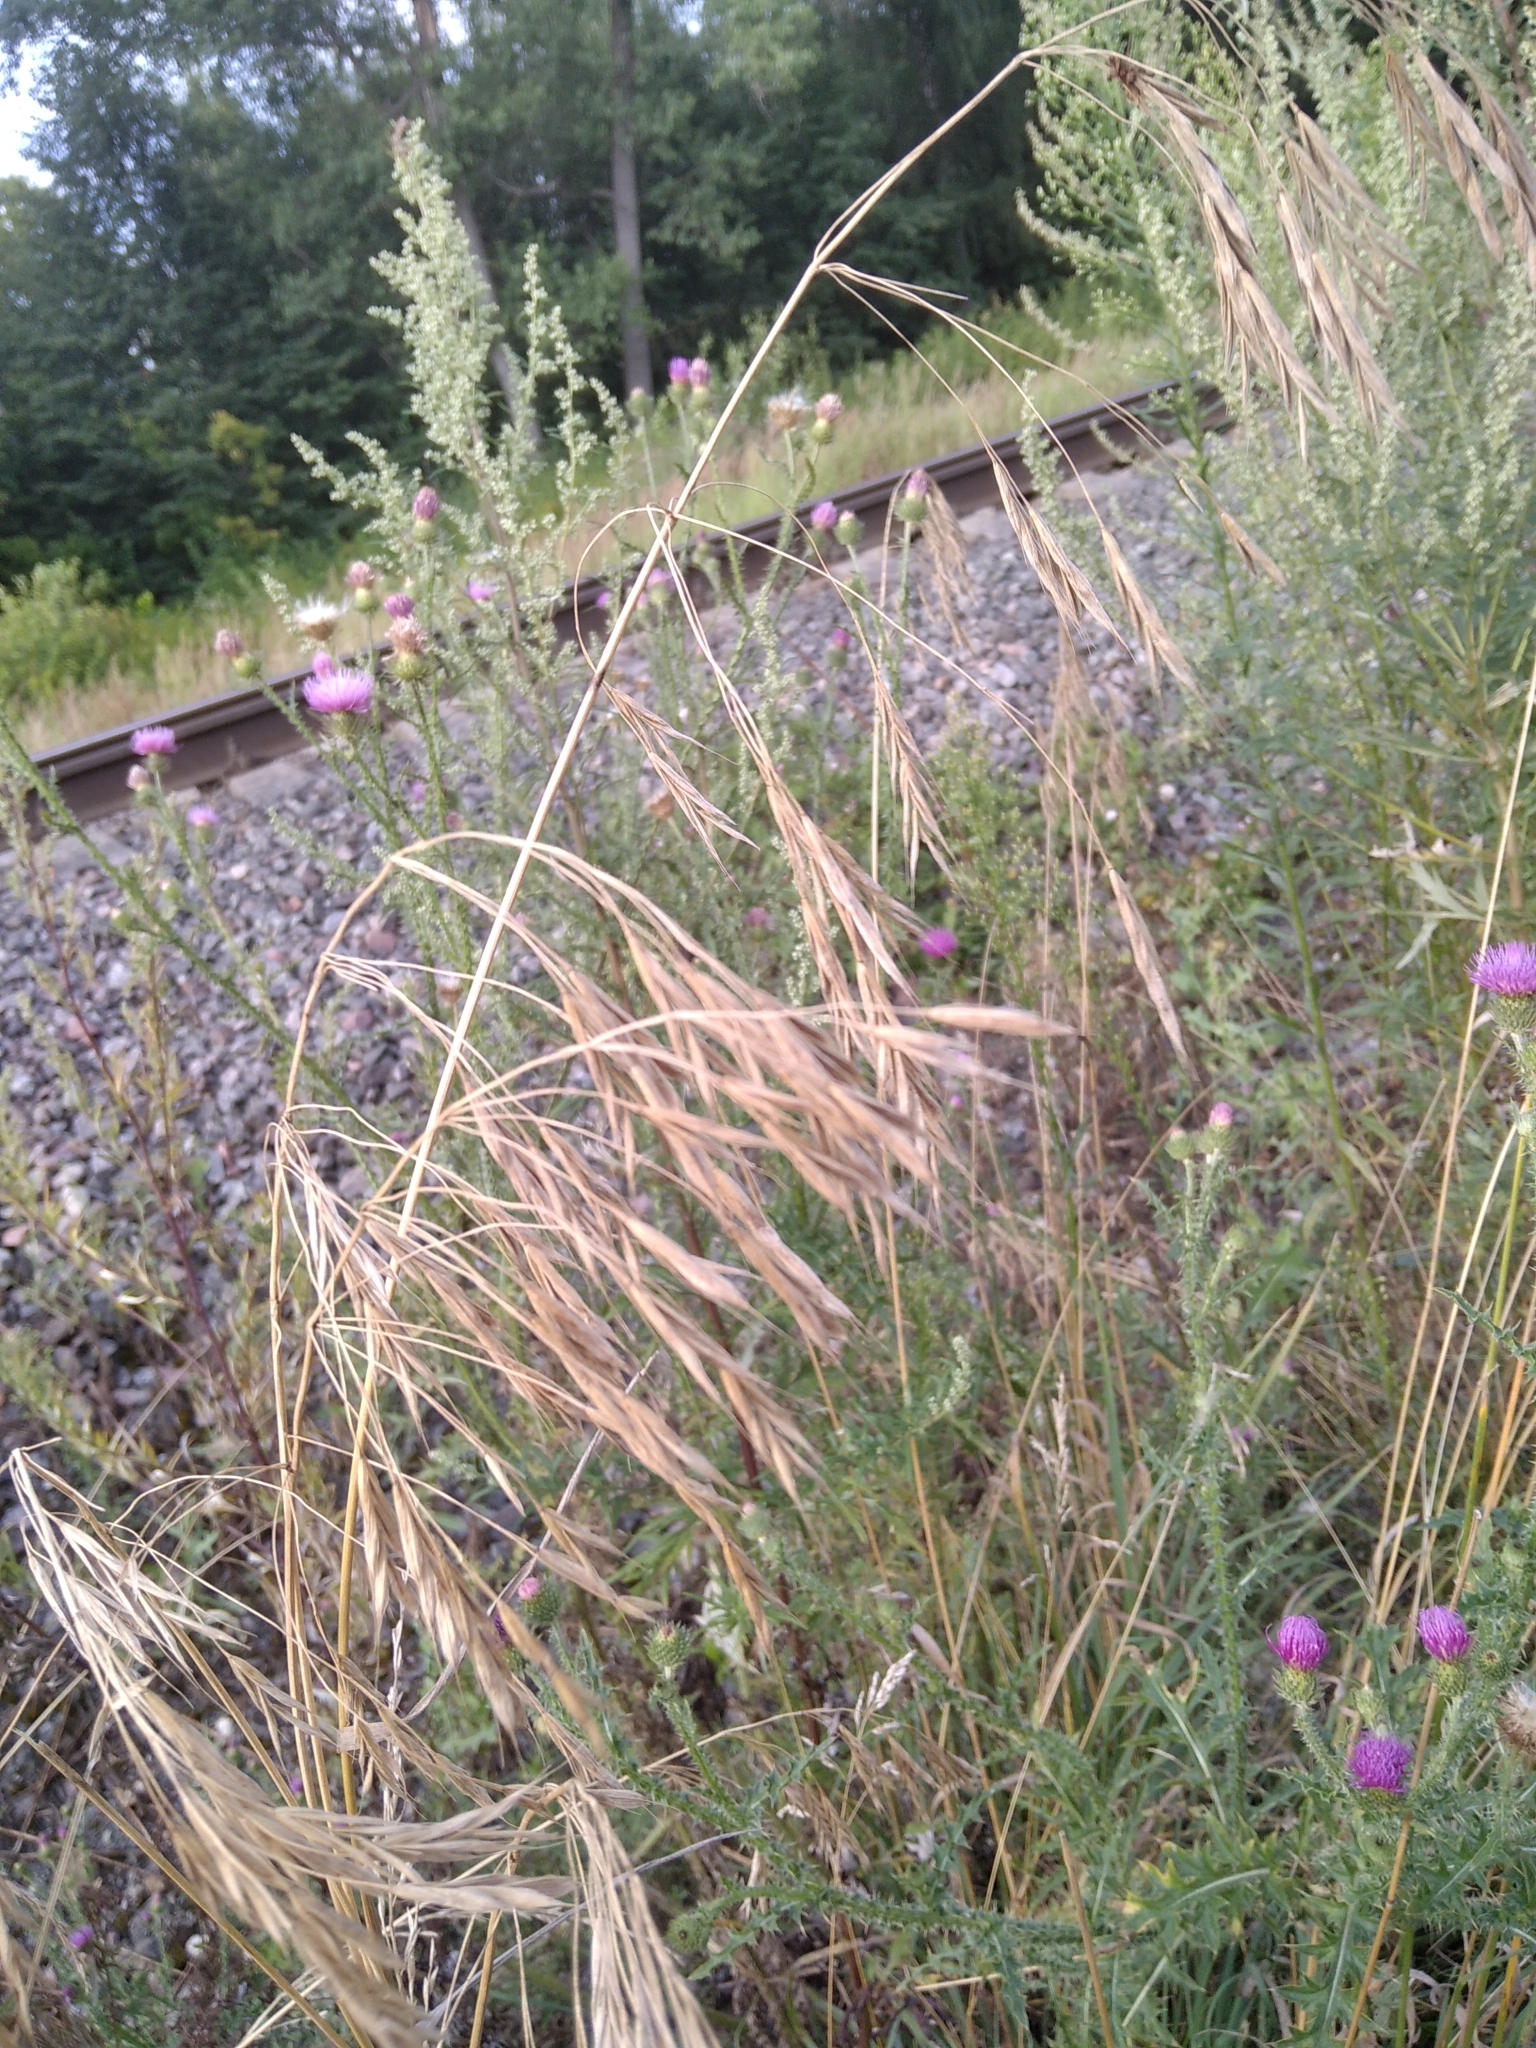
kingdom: Plantae
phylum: Tracheophyta
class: Liliopsida
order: Poales
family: Poaceae
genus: Bromus
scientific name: Bromus inermis
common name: Smooth brome
